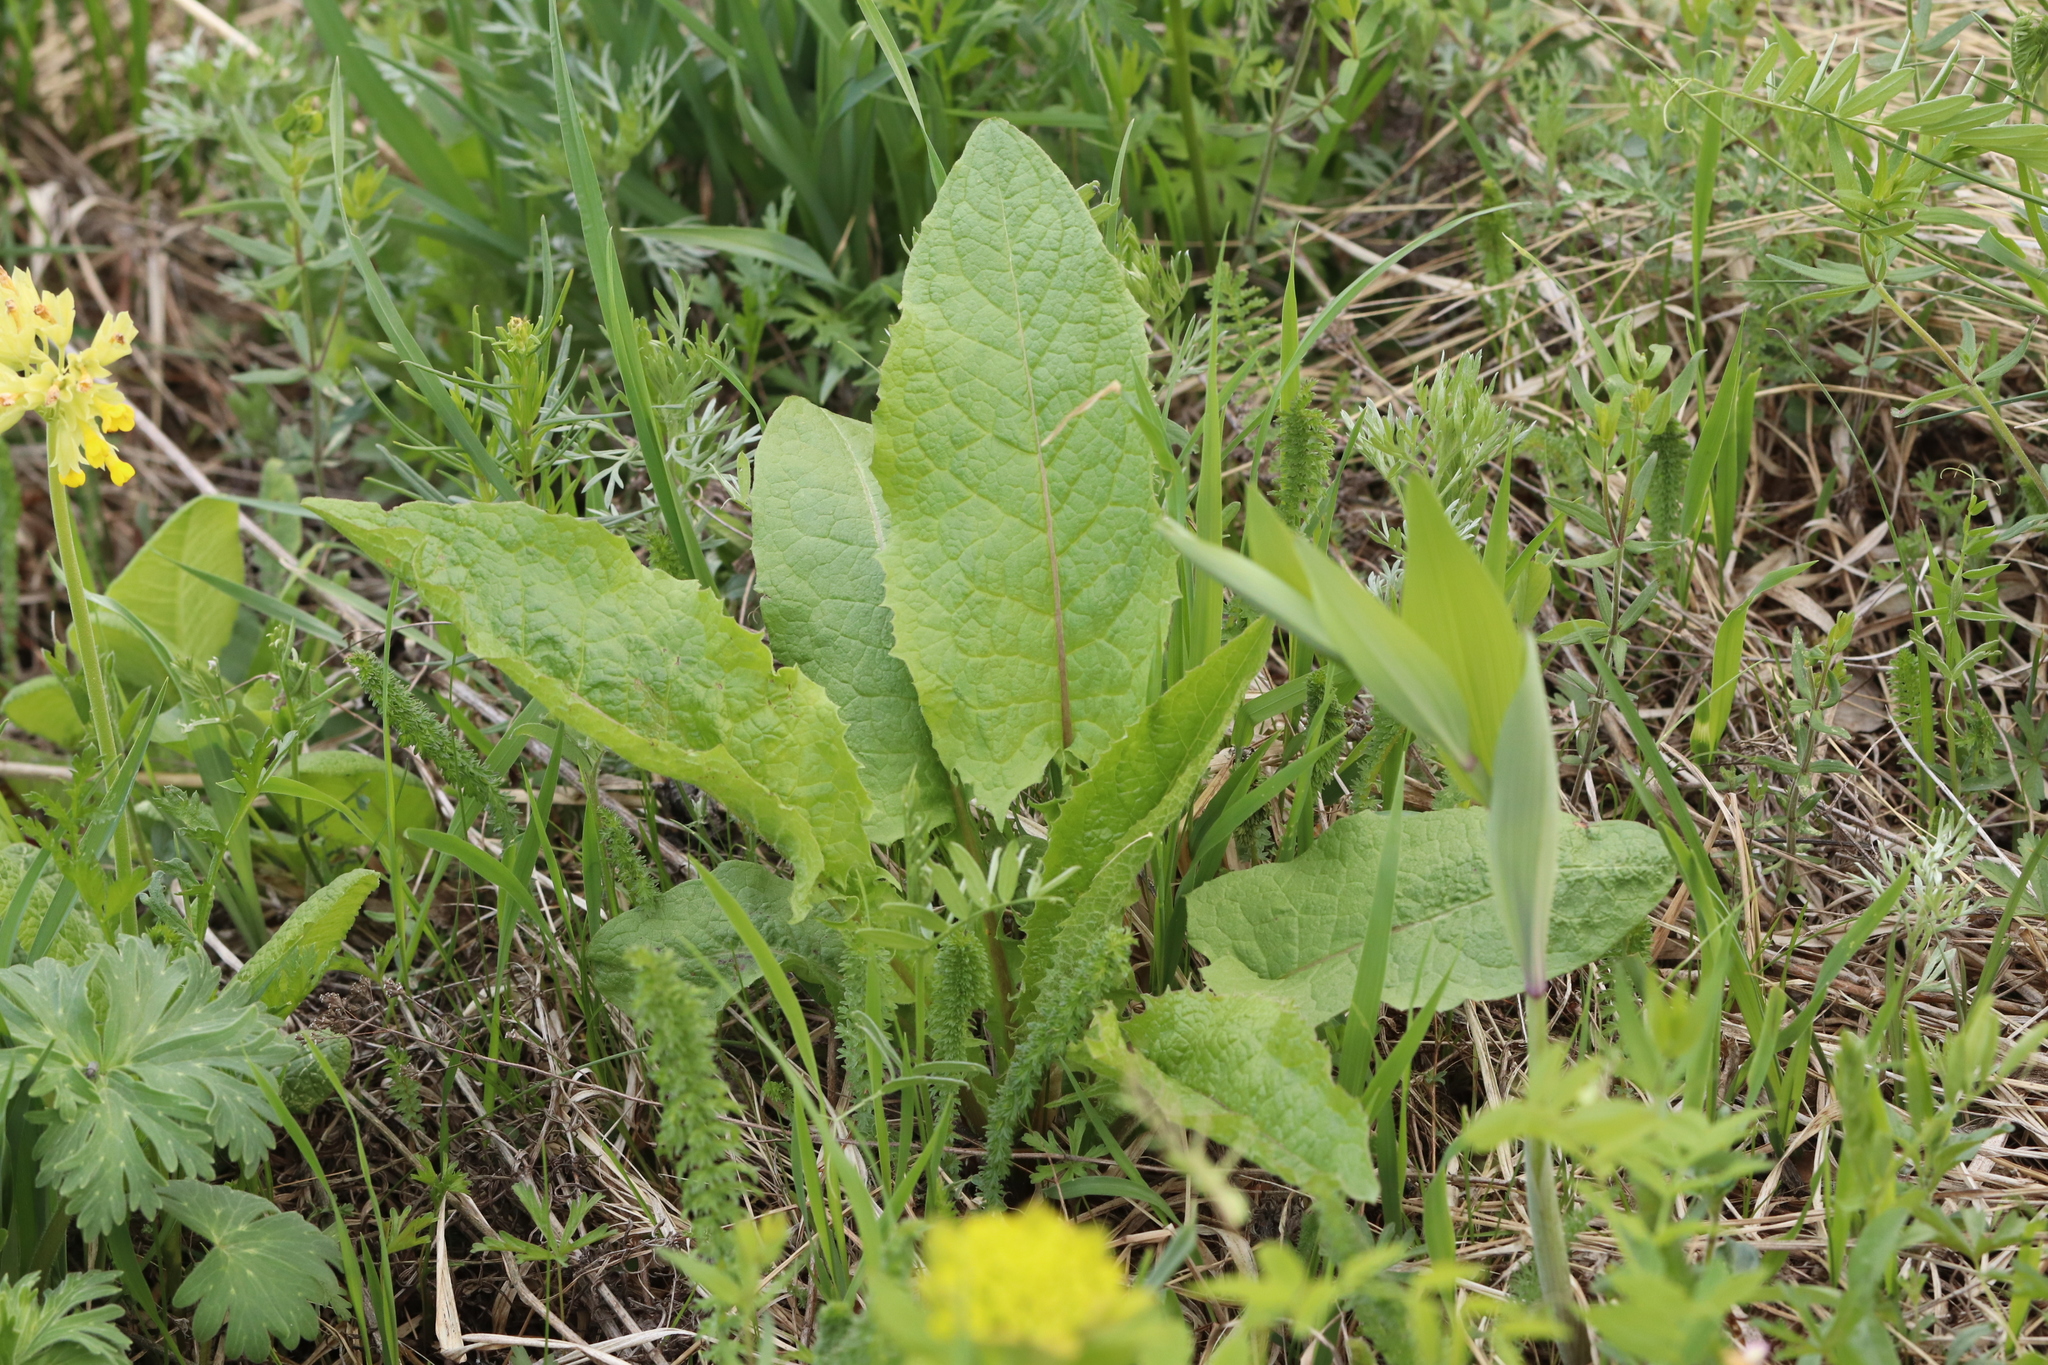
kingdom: Plantae
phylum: Tracheophyta
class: Magnoliopsida
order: Asterales
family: Asteraceae
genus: Crepis
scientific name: Crepis sibirica
